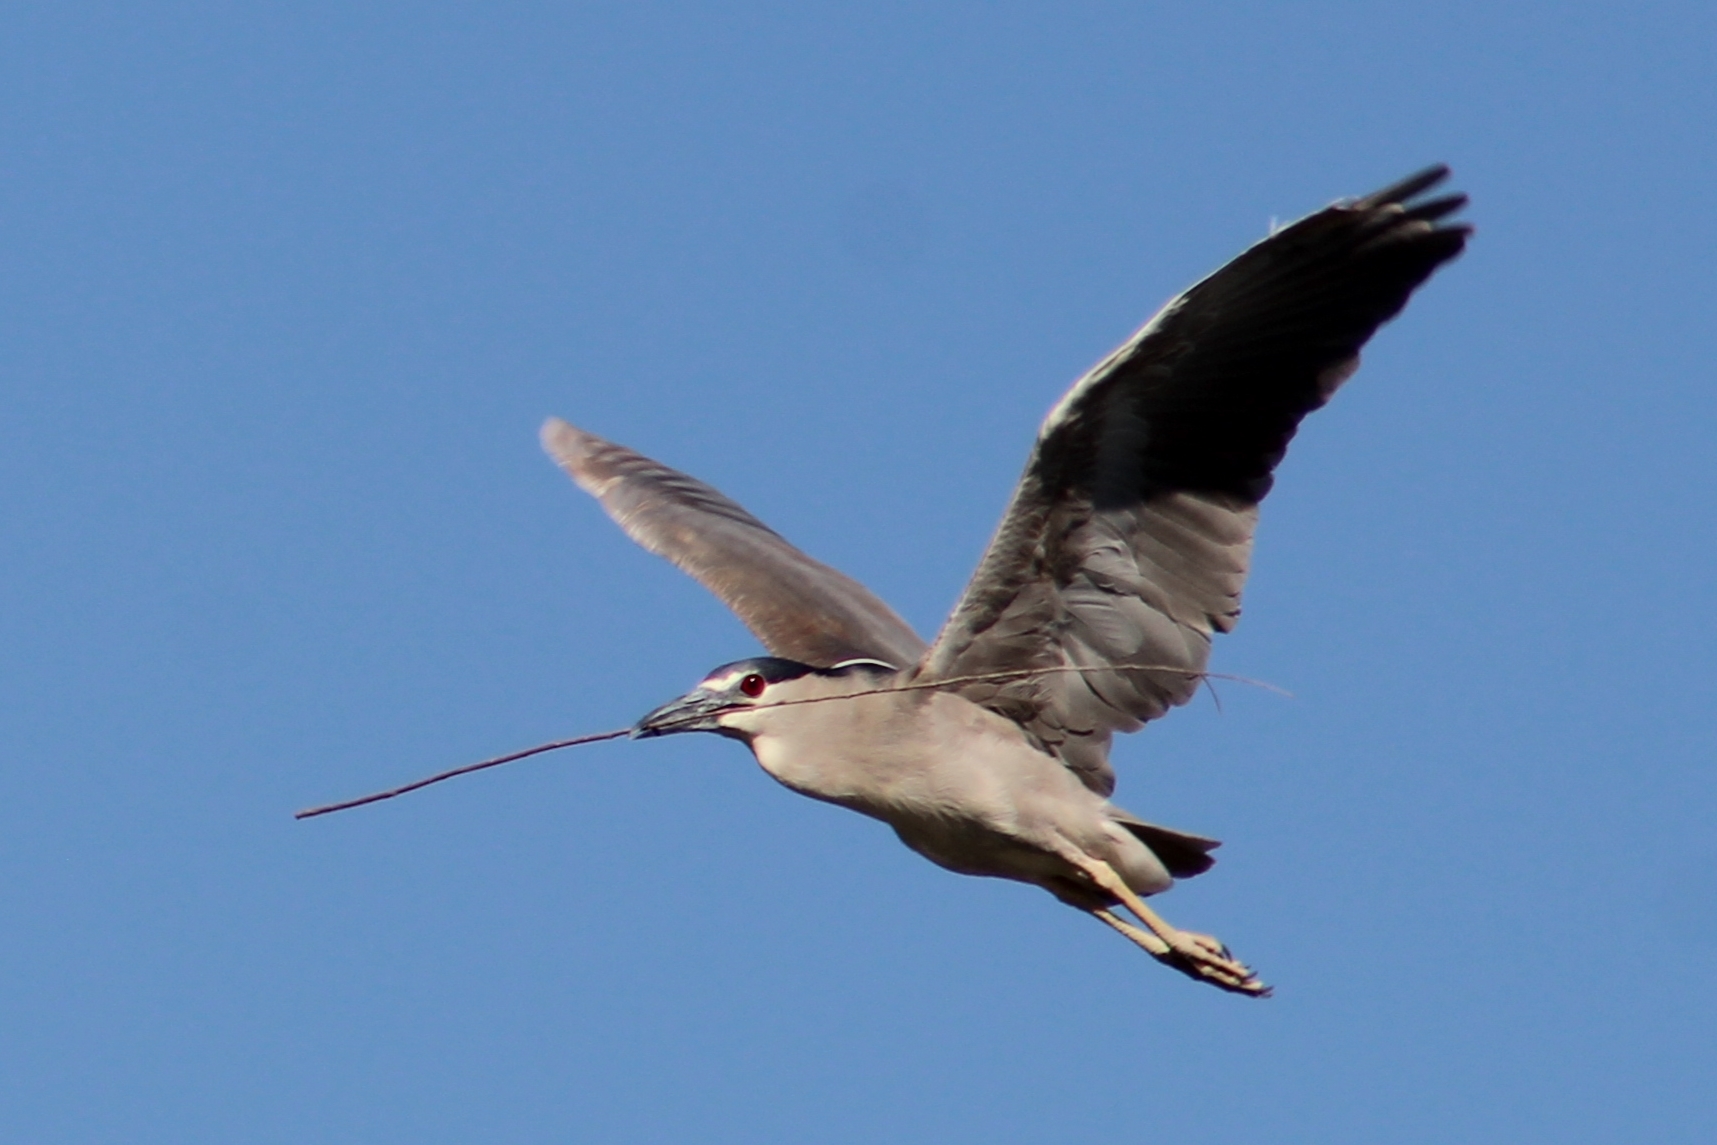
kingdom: Animalia
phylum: Chordata
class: Aves
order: Pelecaniformes
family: Ardeidae
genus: Nycticorax
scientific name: Nycticorax nycticorax
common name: Black-crowned night heron
